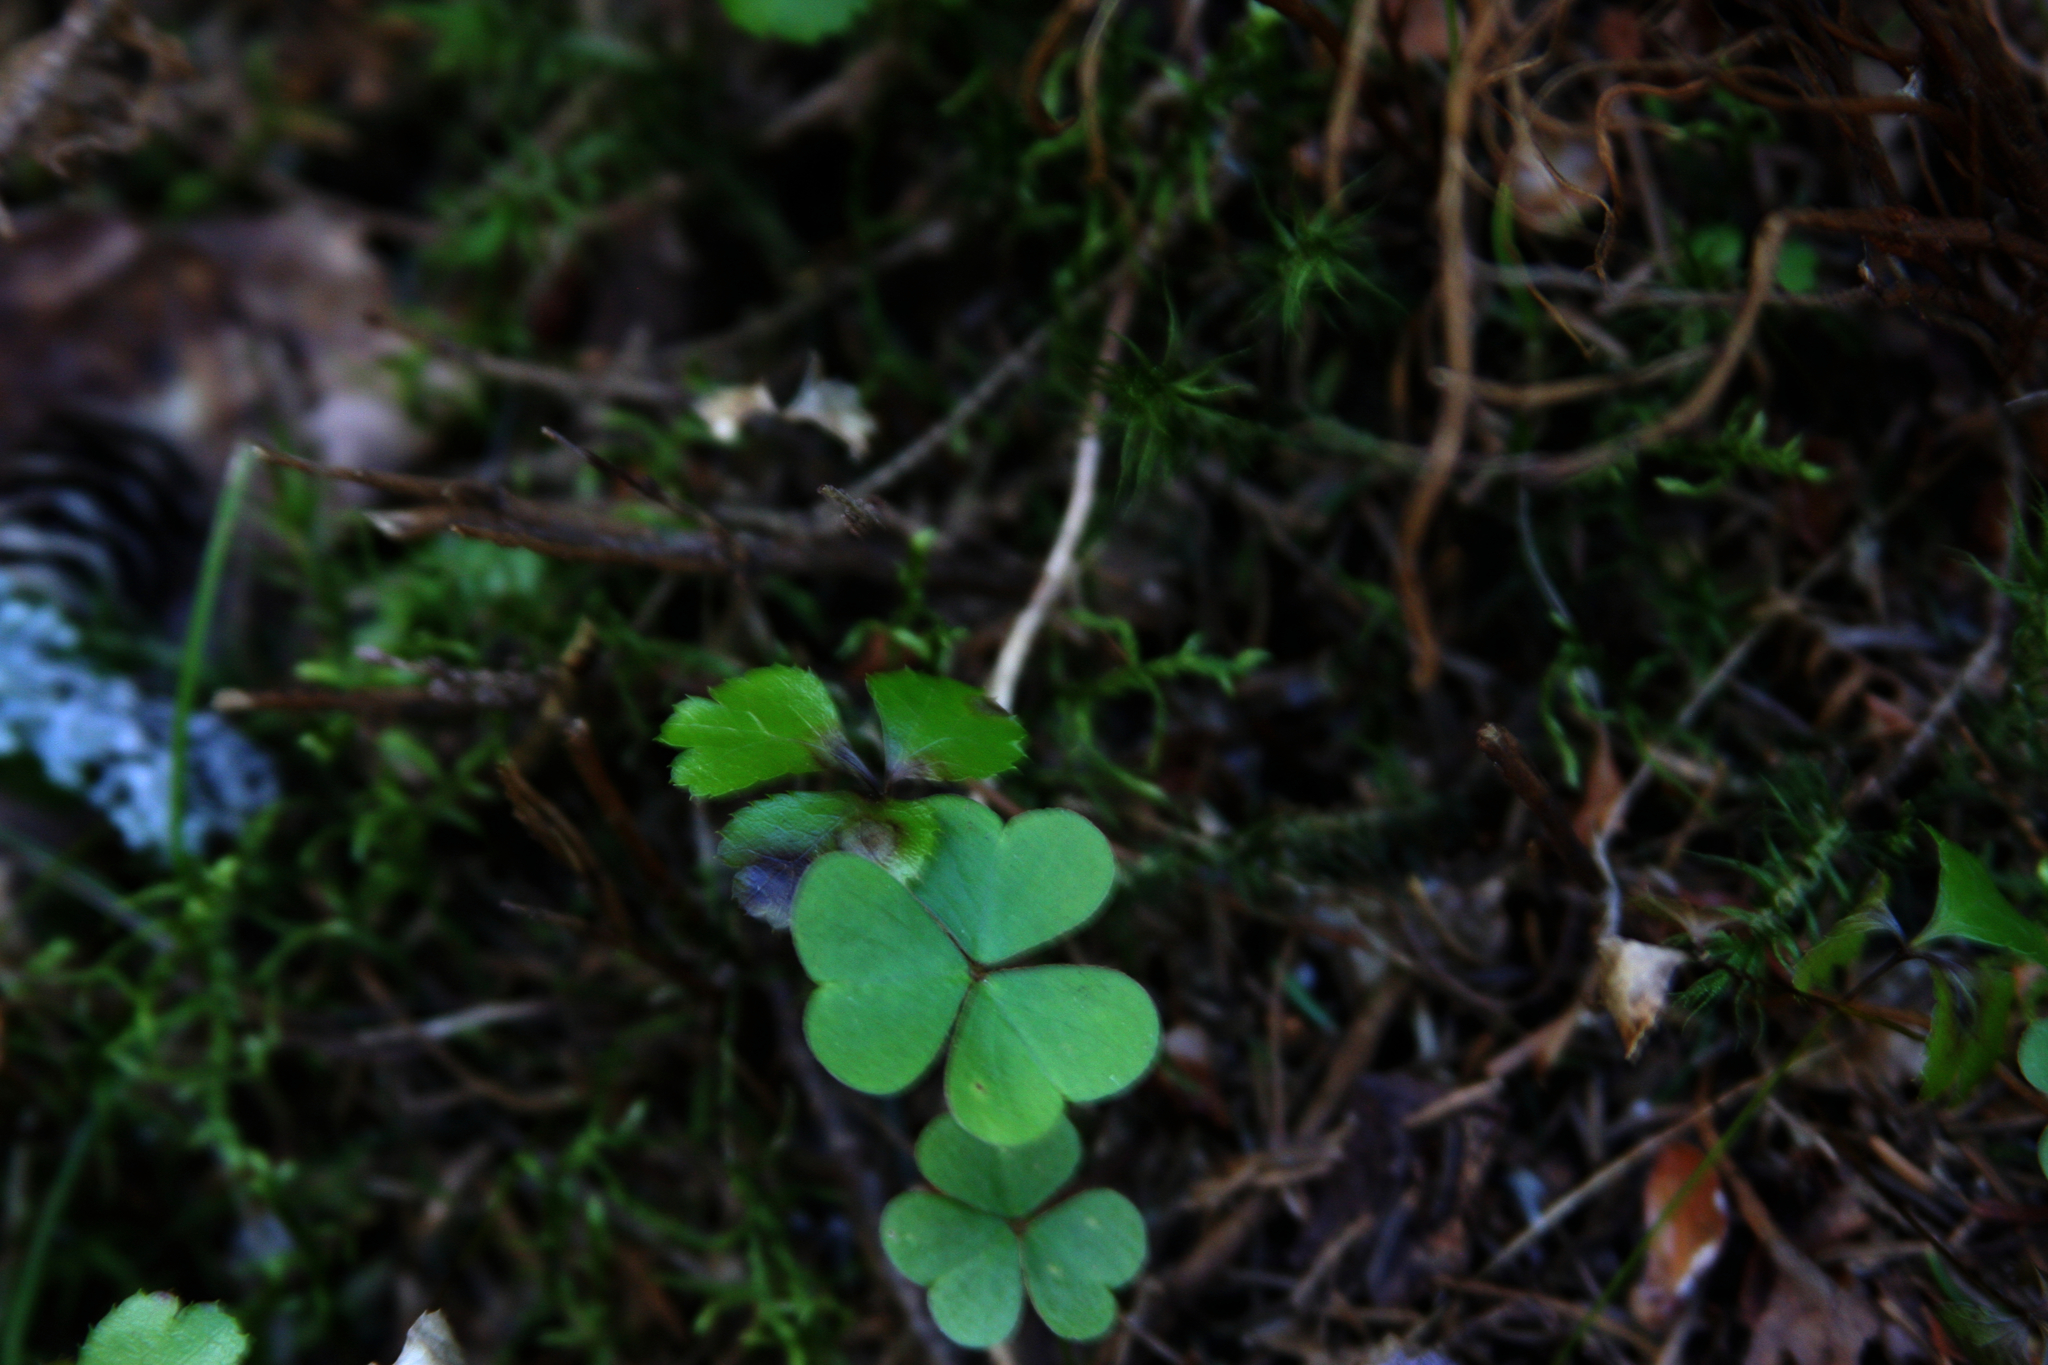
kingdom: Plantae
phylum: Tracheophyta
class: Magnoliopsida
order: Oxalidales
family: Oxalidaceae
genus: Oxalis
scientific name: Oxalis montana
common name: American wood-sorrel
